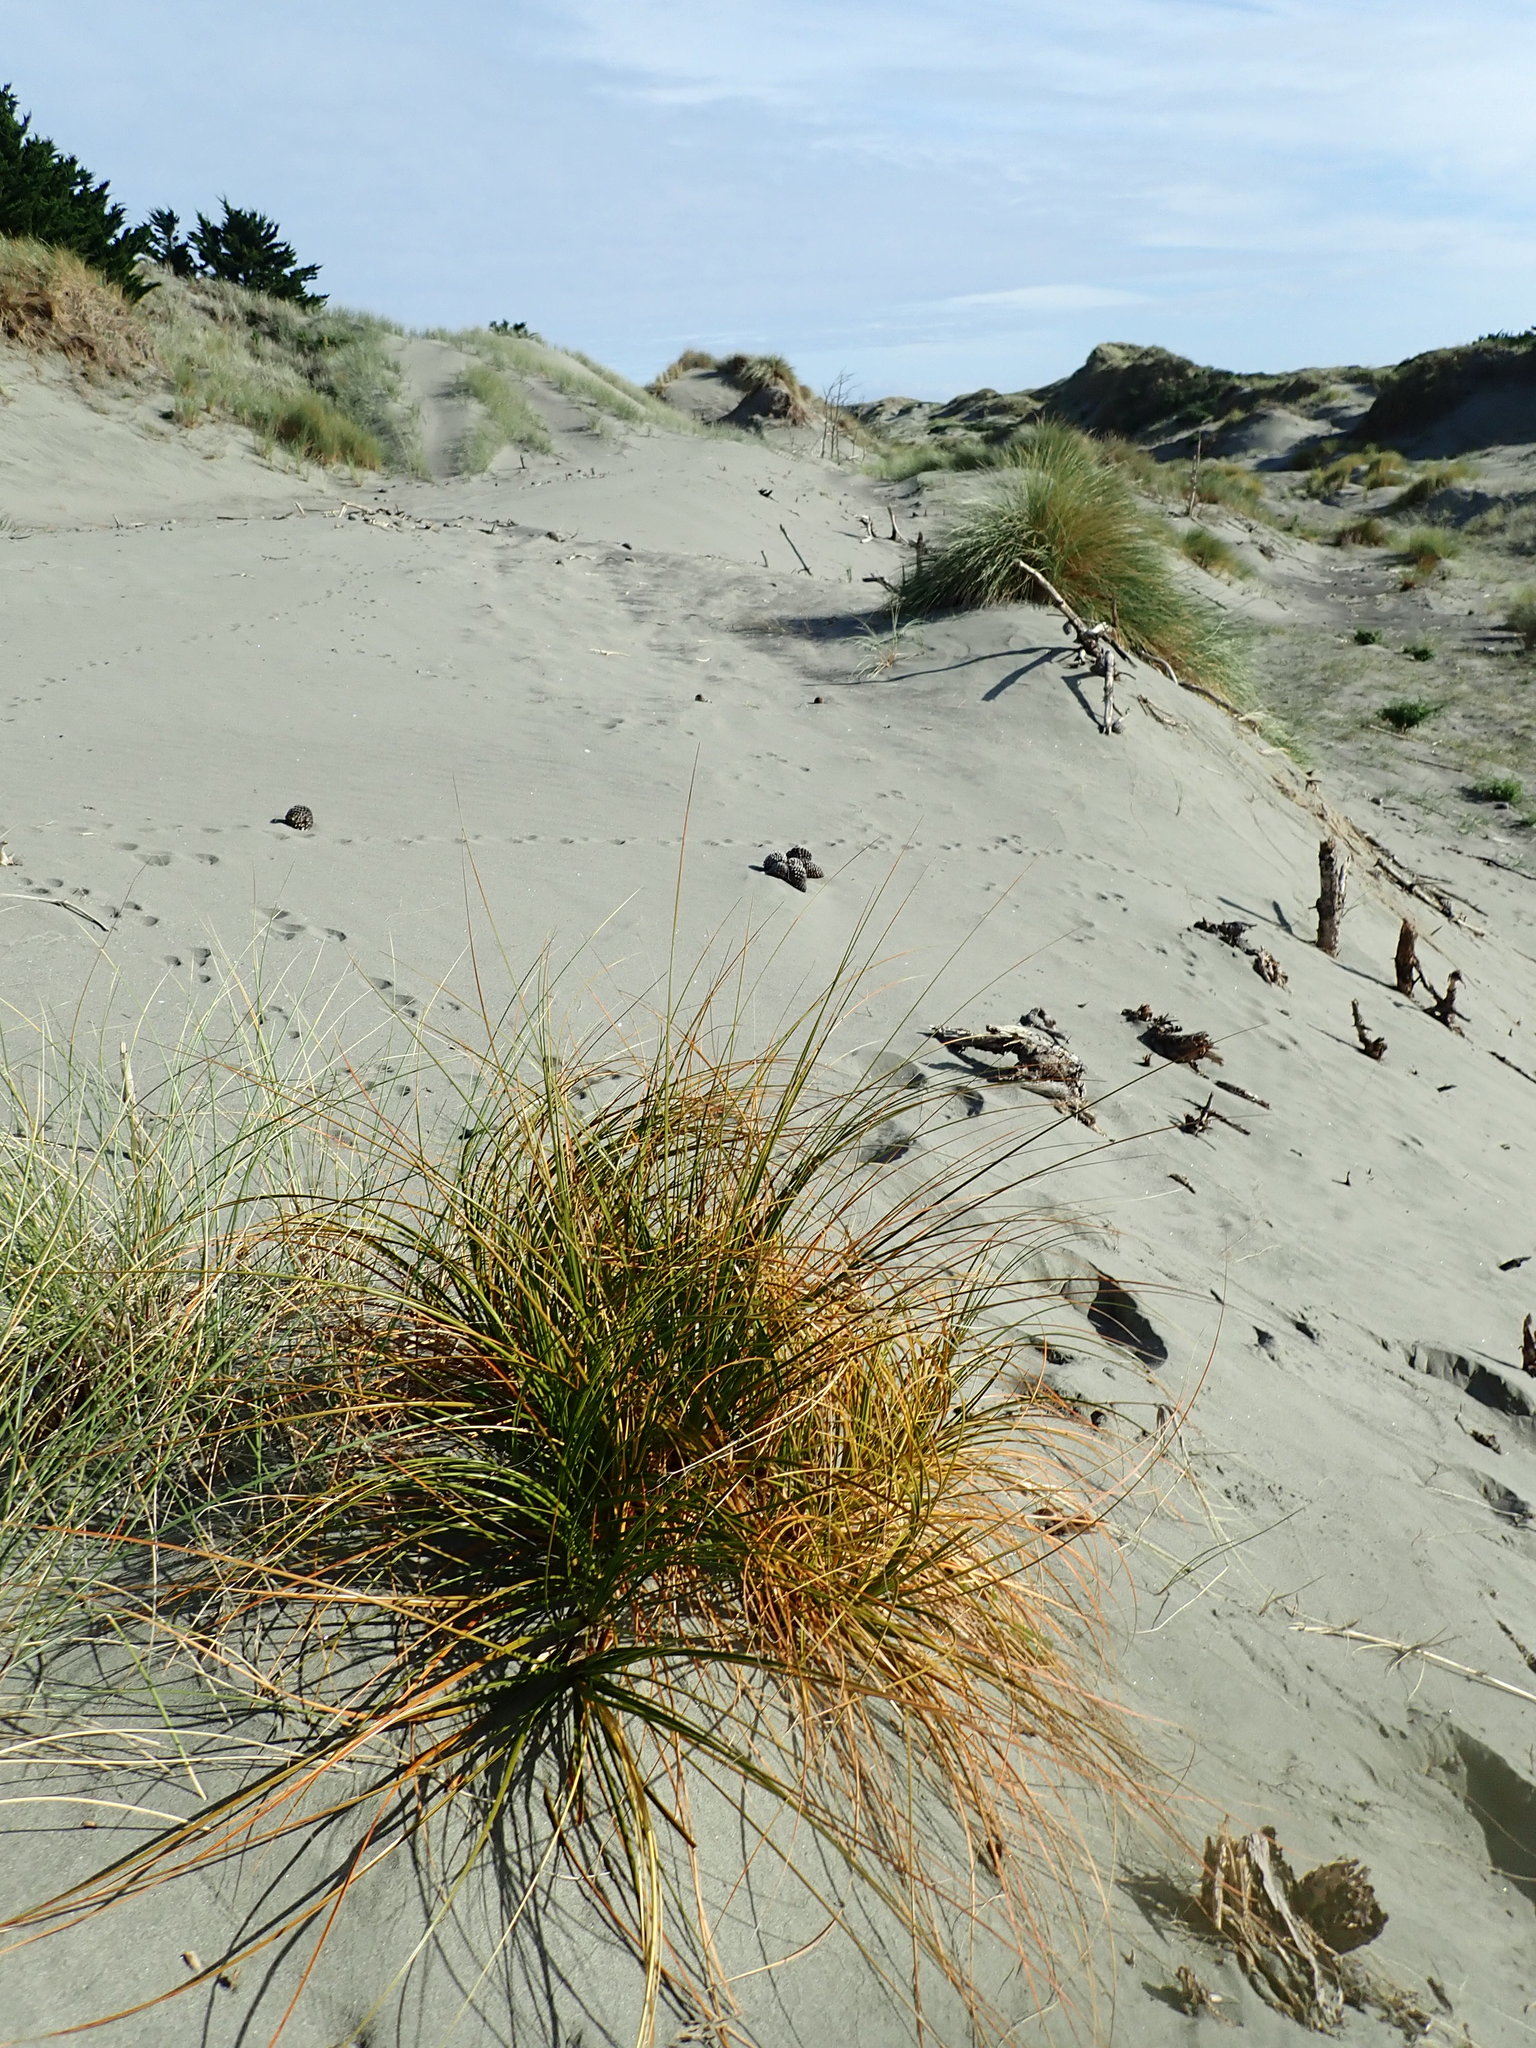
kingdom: Plantae
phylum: Tracheophyta
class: Liliopsida
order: Poales
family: Cyperaceae
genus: Ficinia
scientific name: Ficinia spiralis
